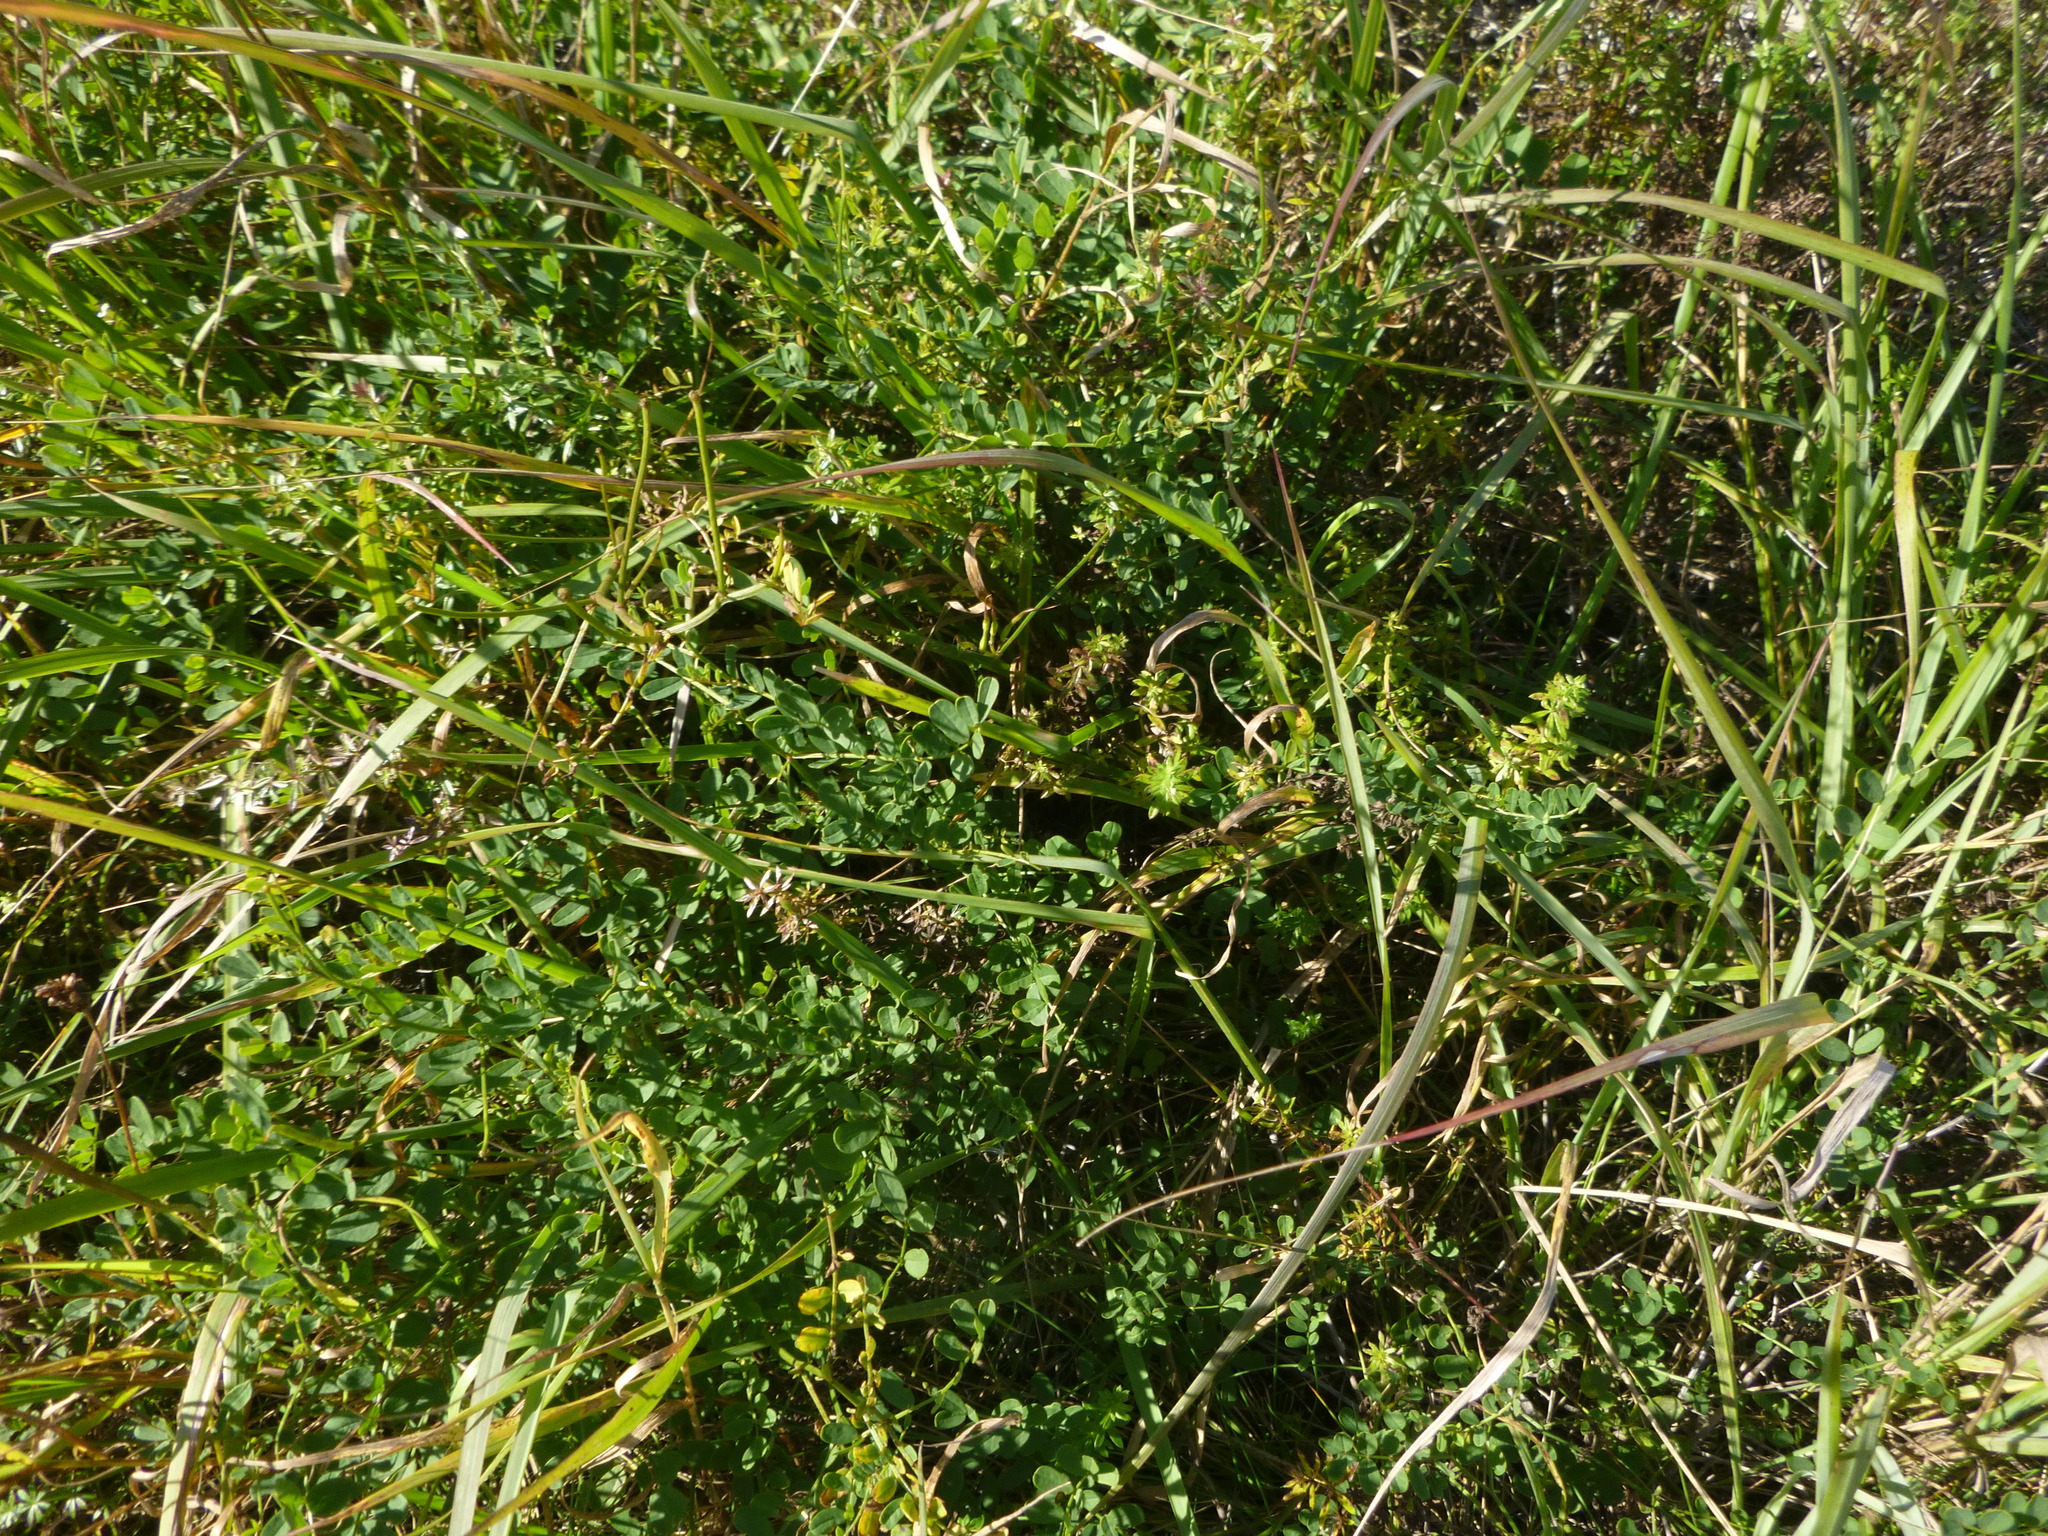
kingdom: Plantae
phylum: Tracheophyta
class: Magnoliopsida
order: Fabales
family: Fabaceae
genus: Coronilla
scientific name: Coronilla varia
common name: Crownvetch
